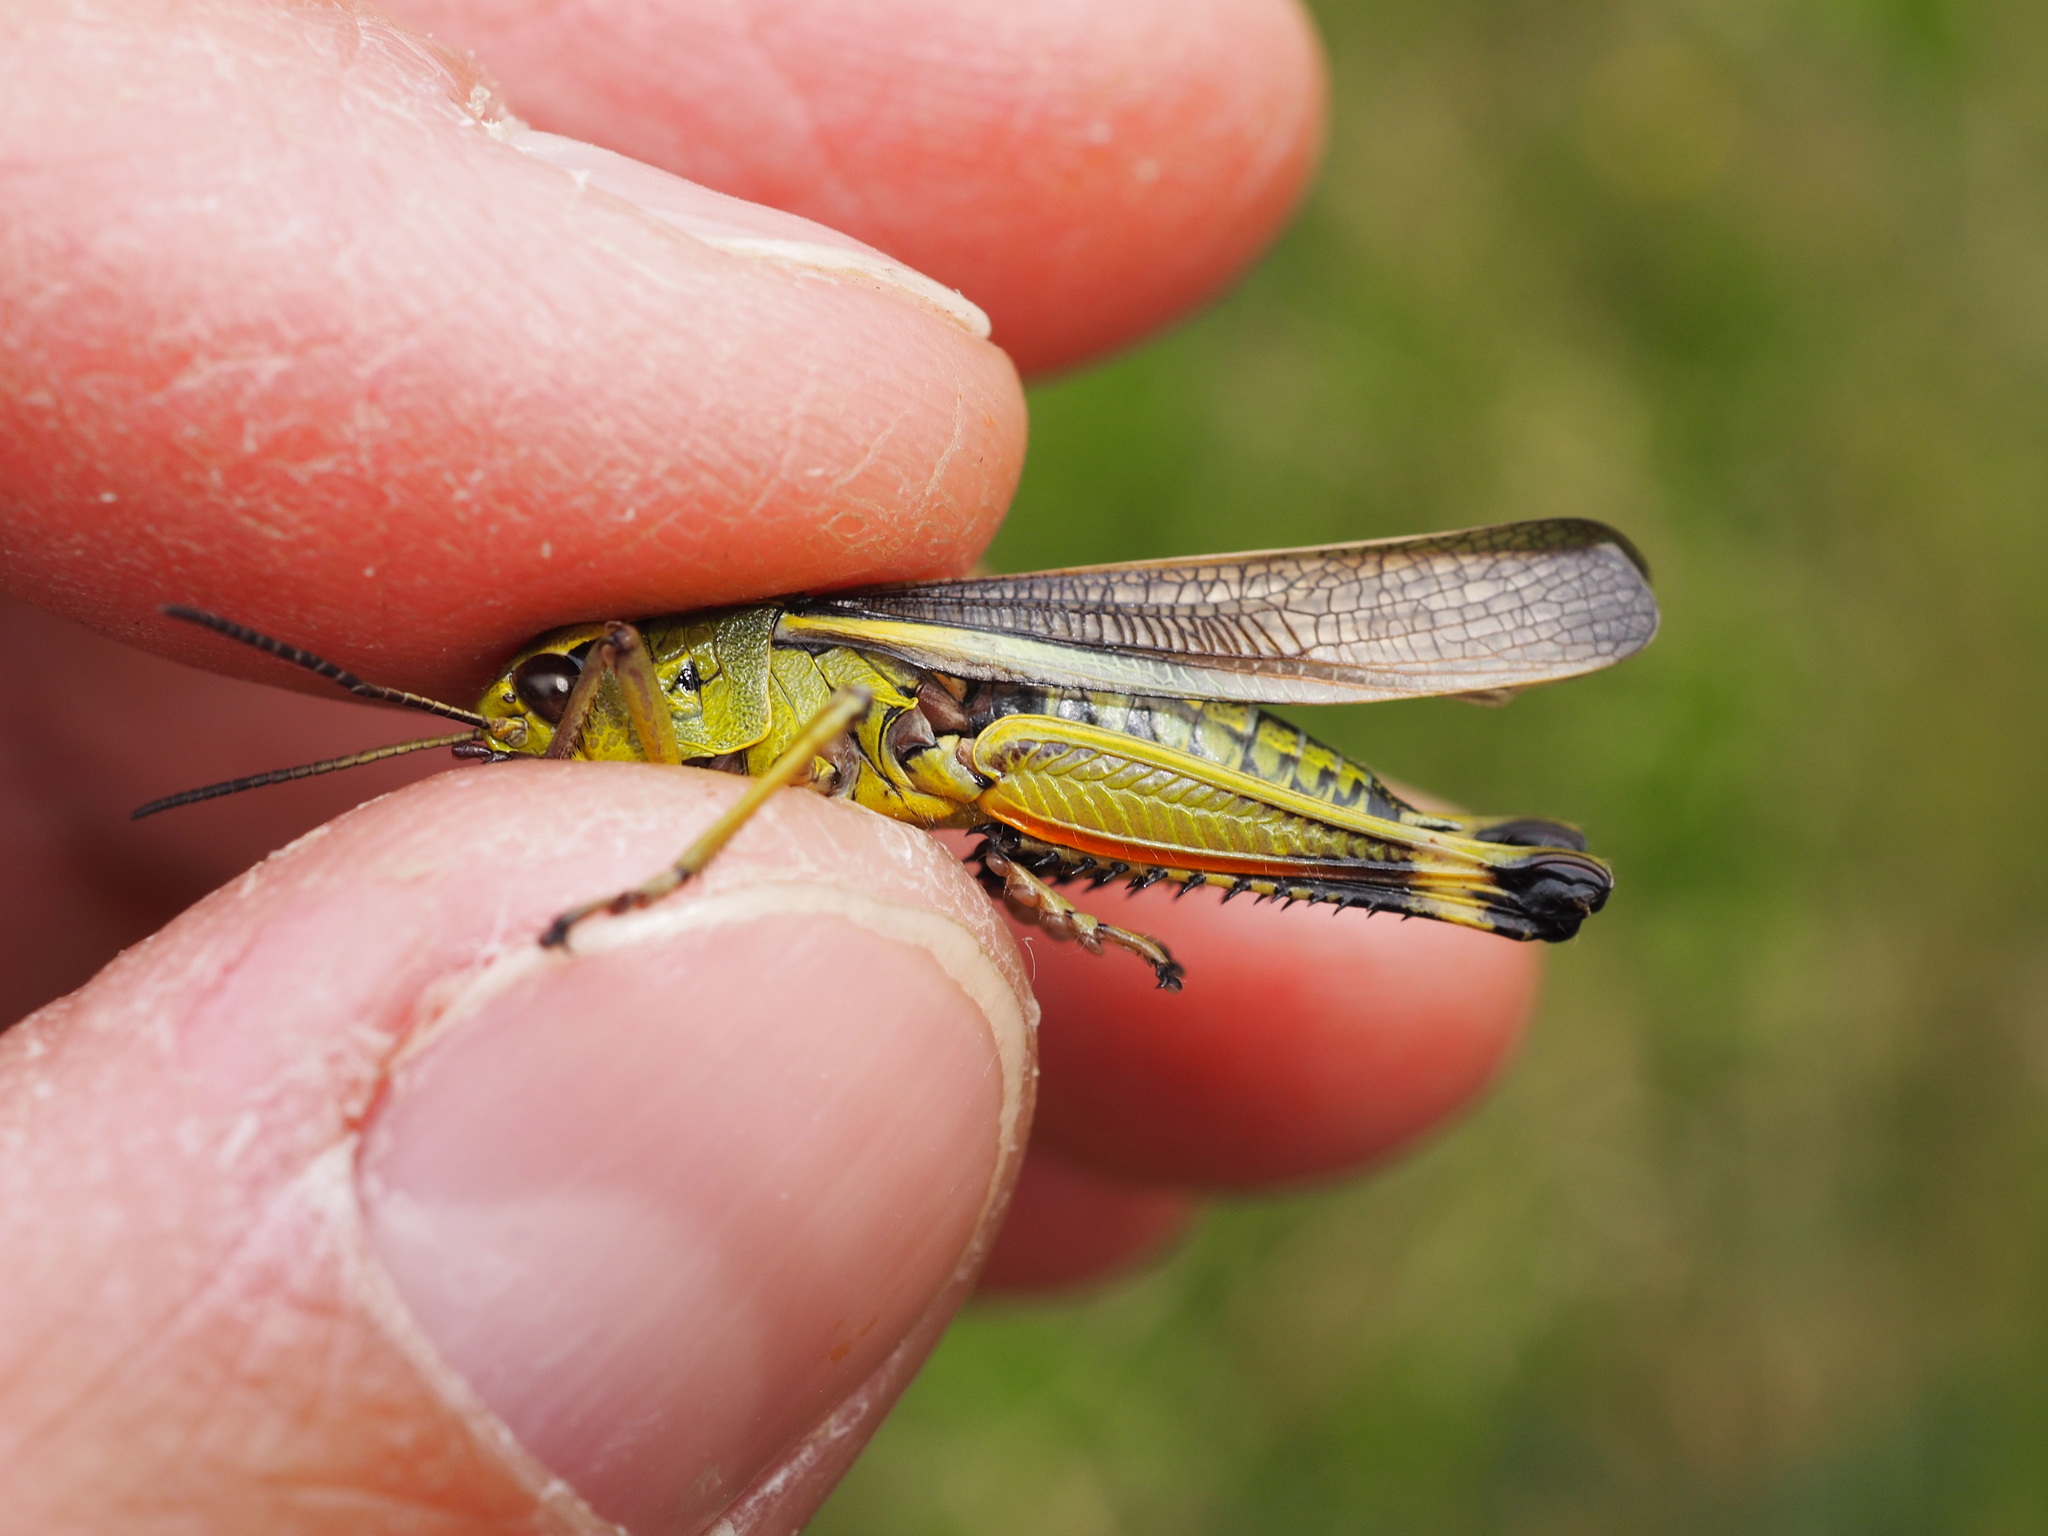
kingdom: Animalia
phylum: Arthropoda
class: Insecta
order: Orthoptera
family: Acrididae
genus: Stethophyma
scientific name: Stethophyma grossum
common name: Large marsh grasshopper
